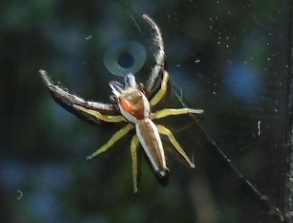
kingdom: Animalia
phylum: Arthropoda
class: Arachnida
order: Araneae
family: Salticidae
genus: Hentzia
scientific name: Hentzia palmarum
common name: Common hentz jumping spider
